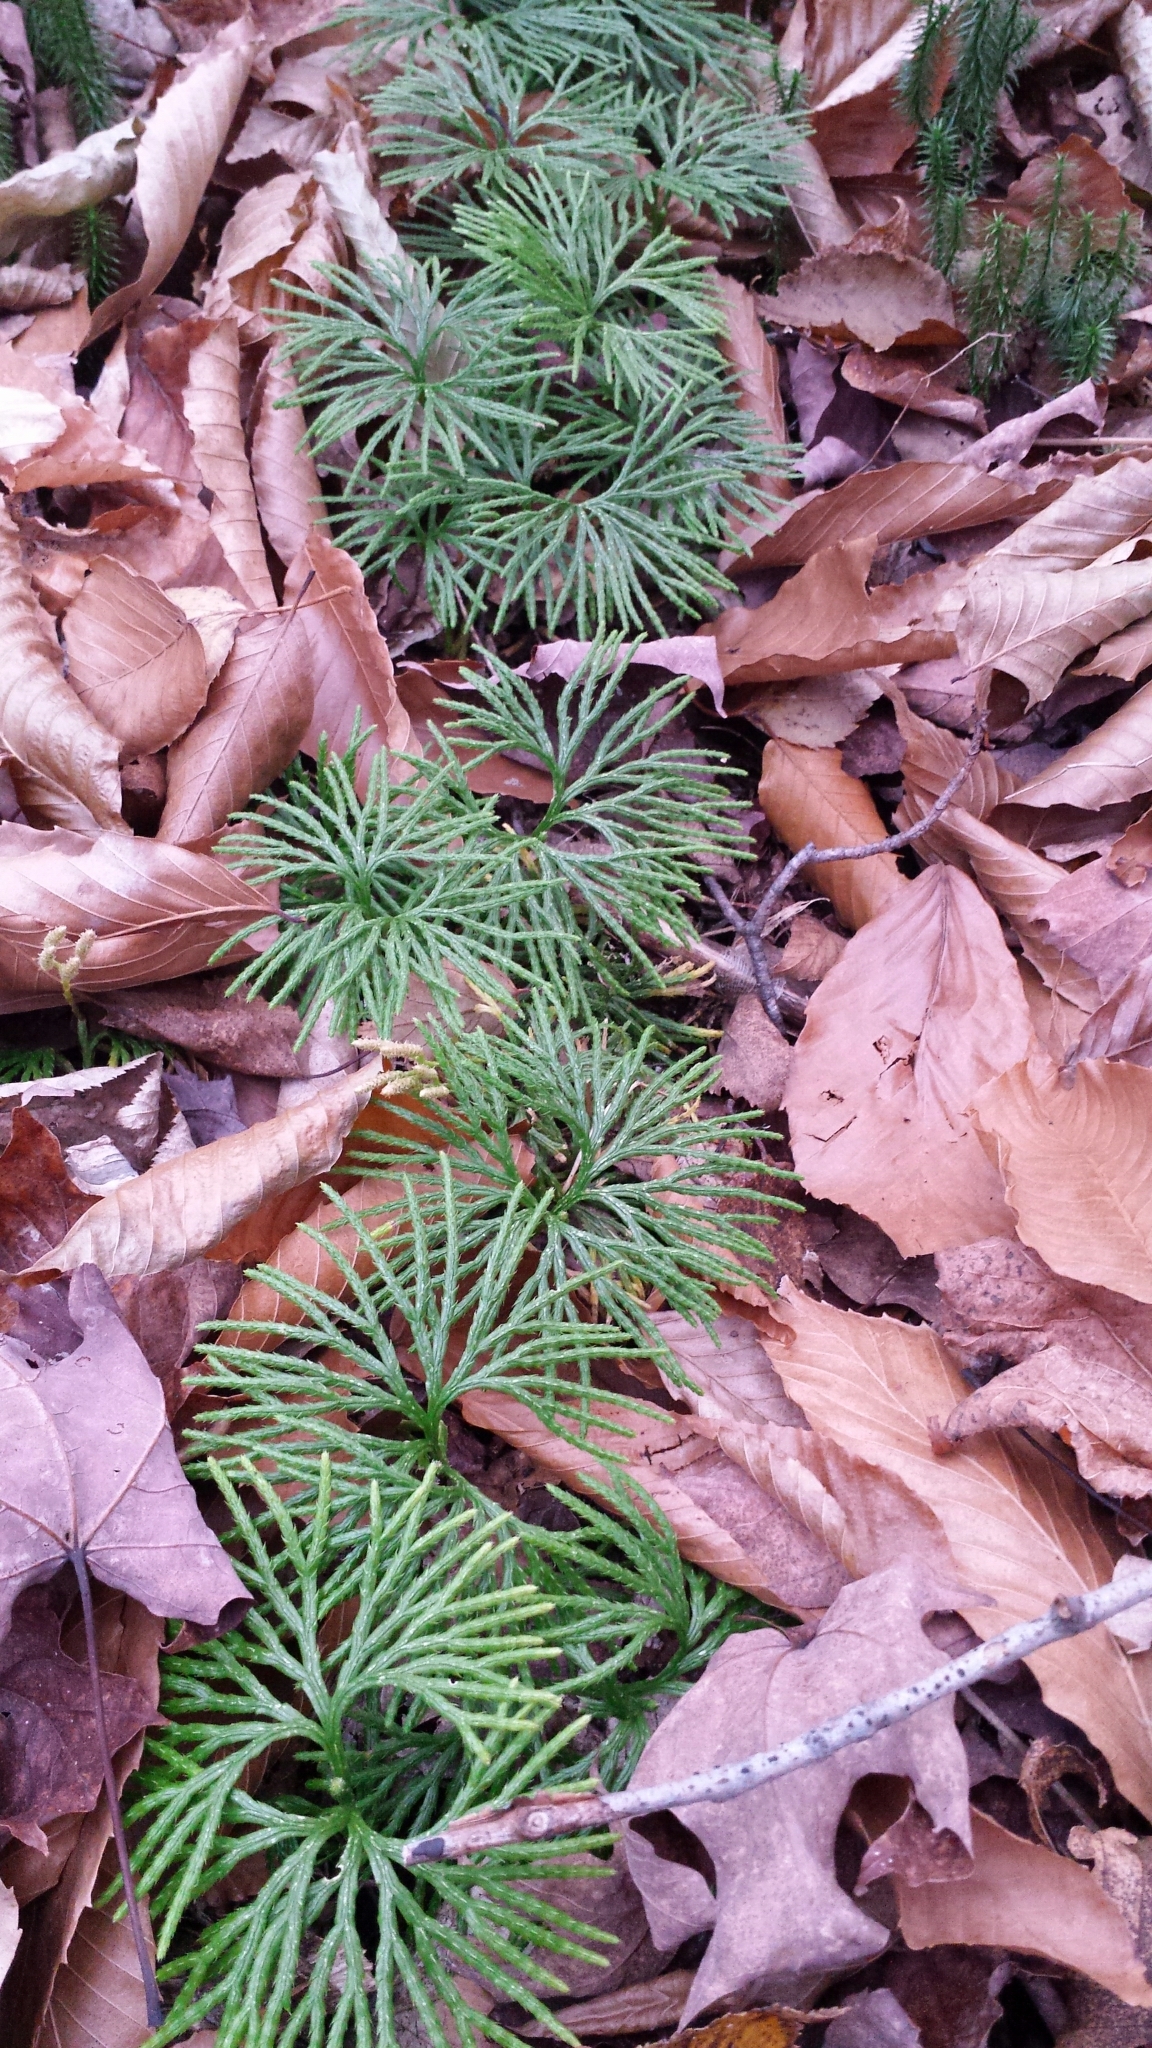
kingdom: Plantae
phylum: Tracheophyta
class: Lycopodiopsida
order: Lycopodiales
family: Lycopodiaceae
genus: Diphasiastrum
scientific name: Diphasiastrum digitatum
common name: Southern running-pine
